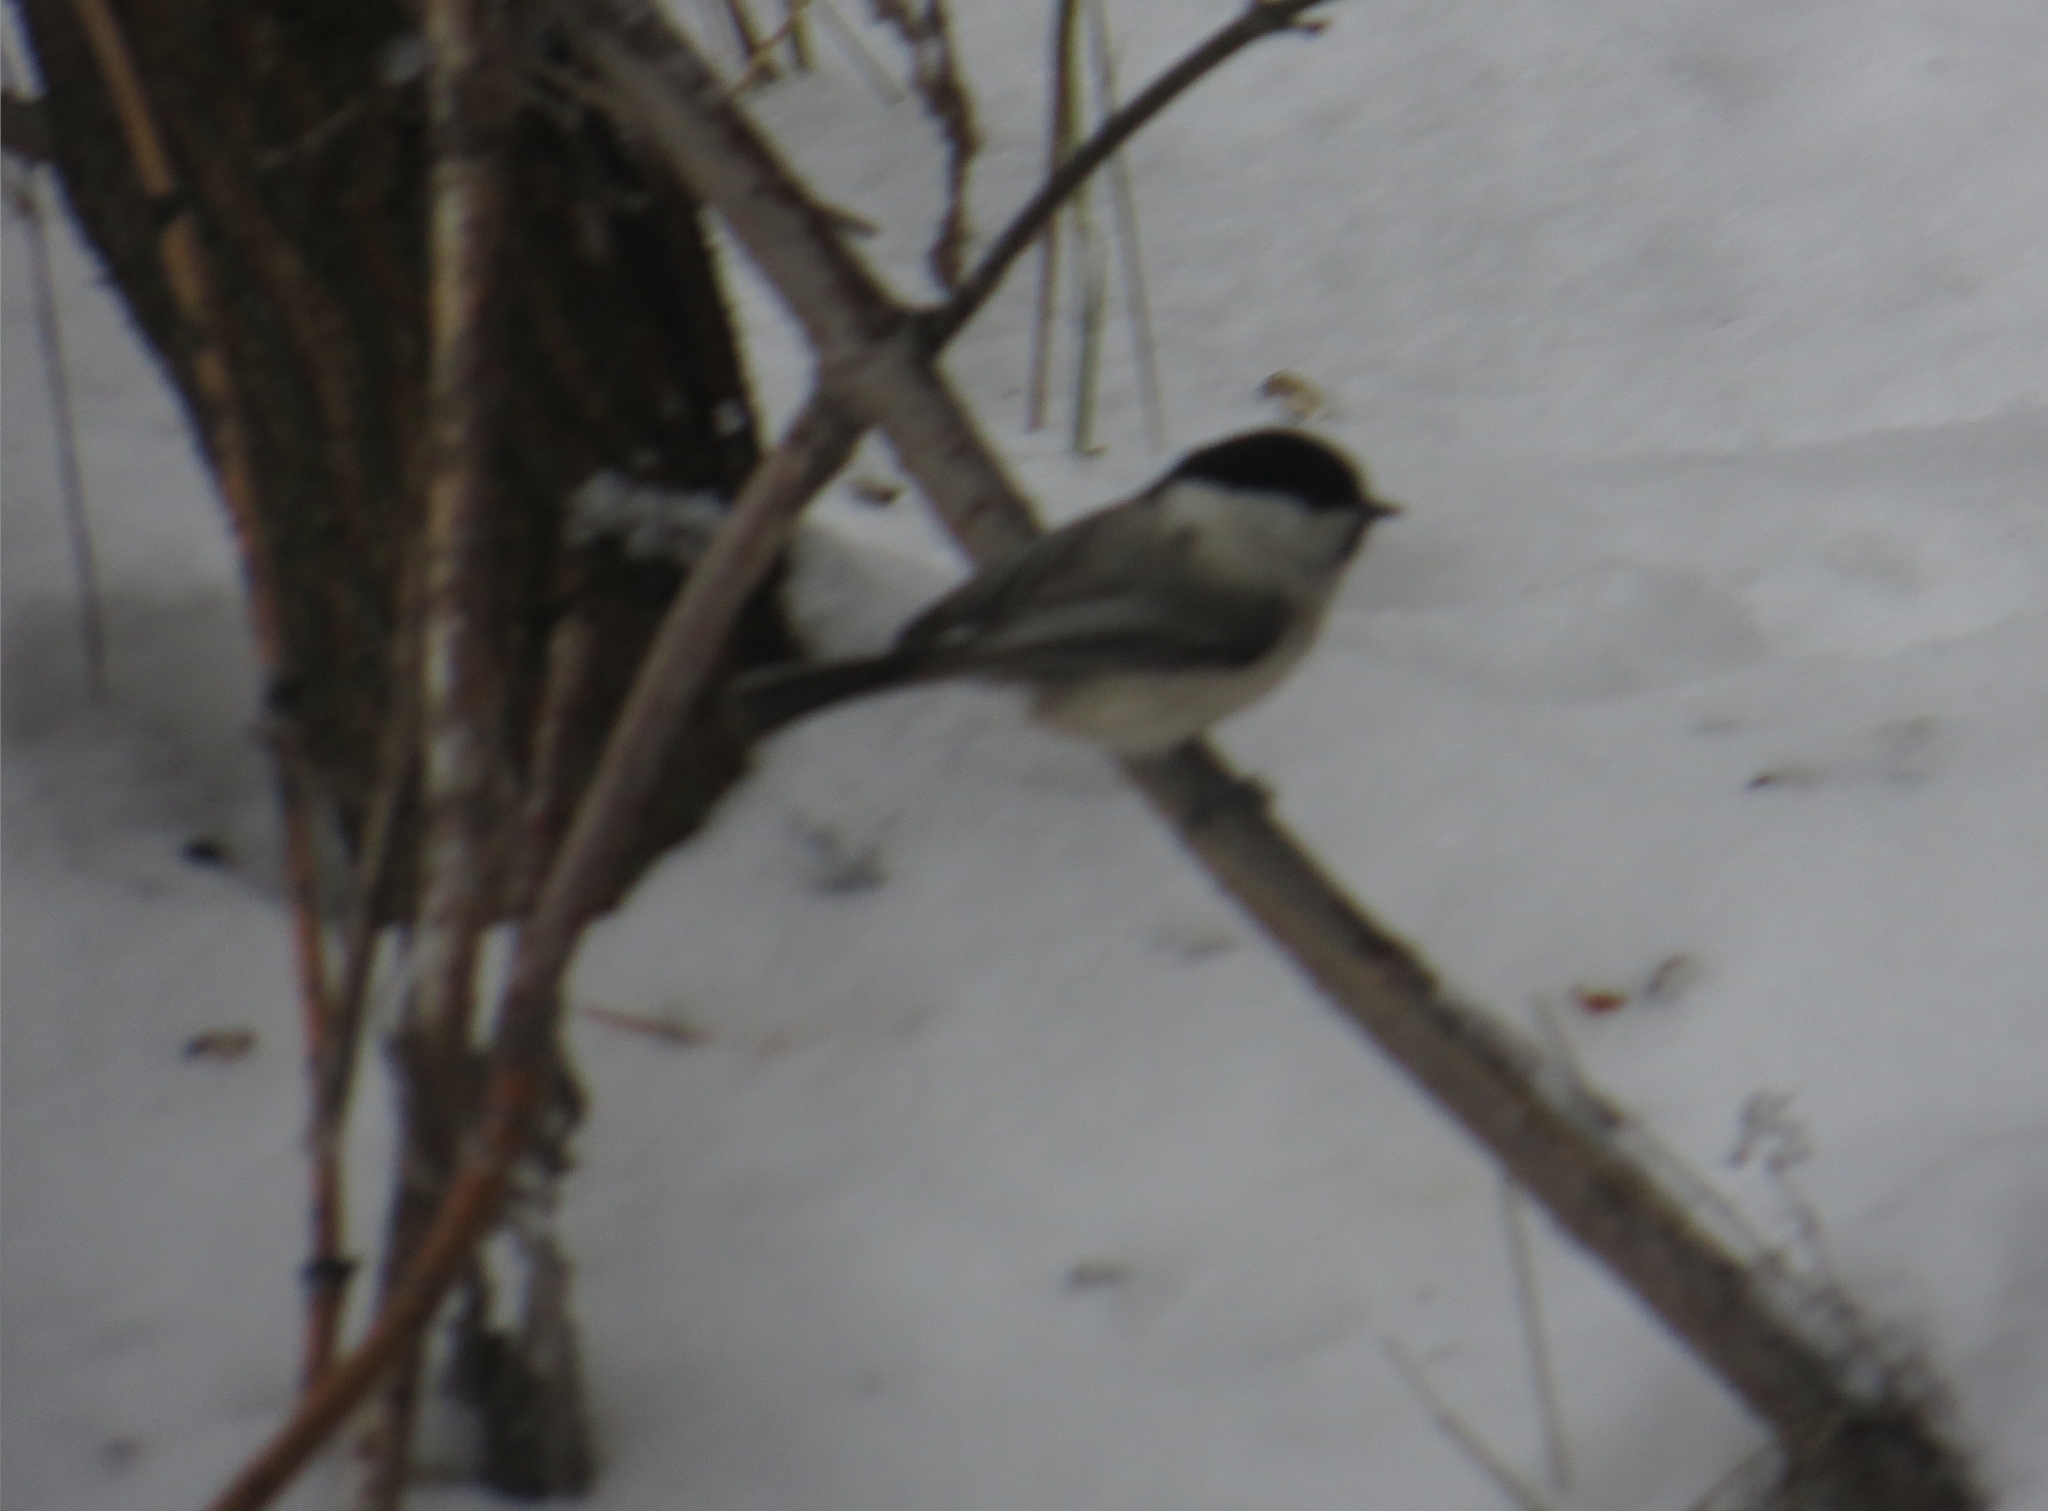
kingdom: Animalia
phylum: Chordata
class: Aves
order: Passeriformes
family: Paridae
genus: Poecile
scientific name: Poecile montanus
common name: Willow tit
